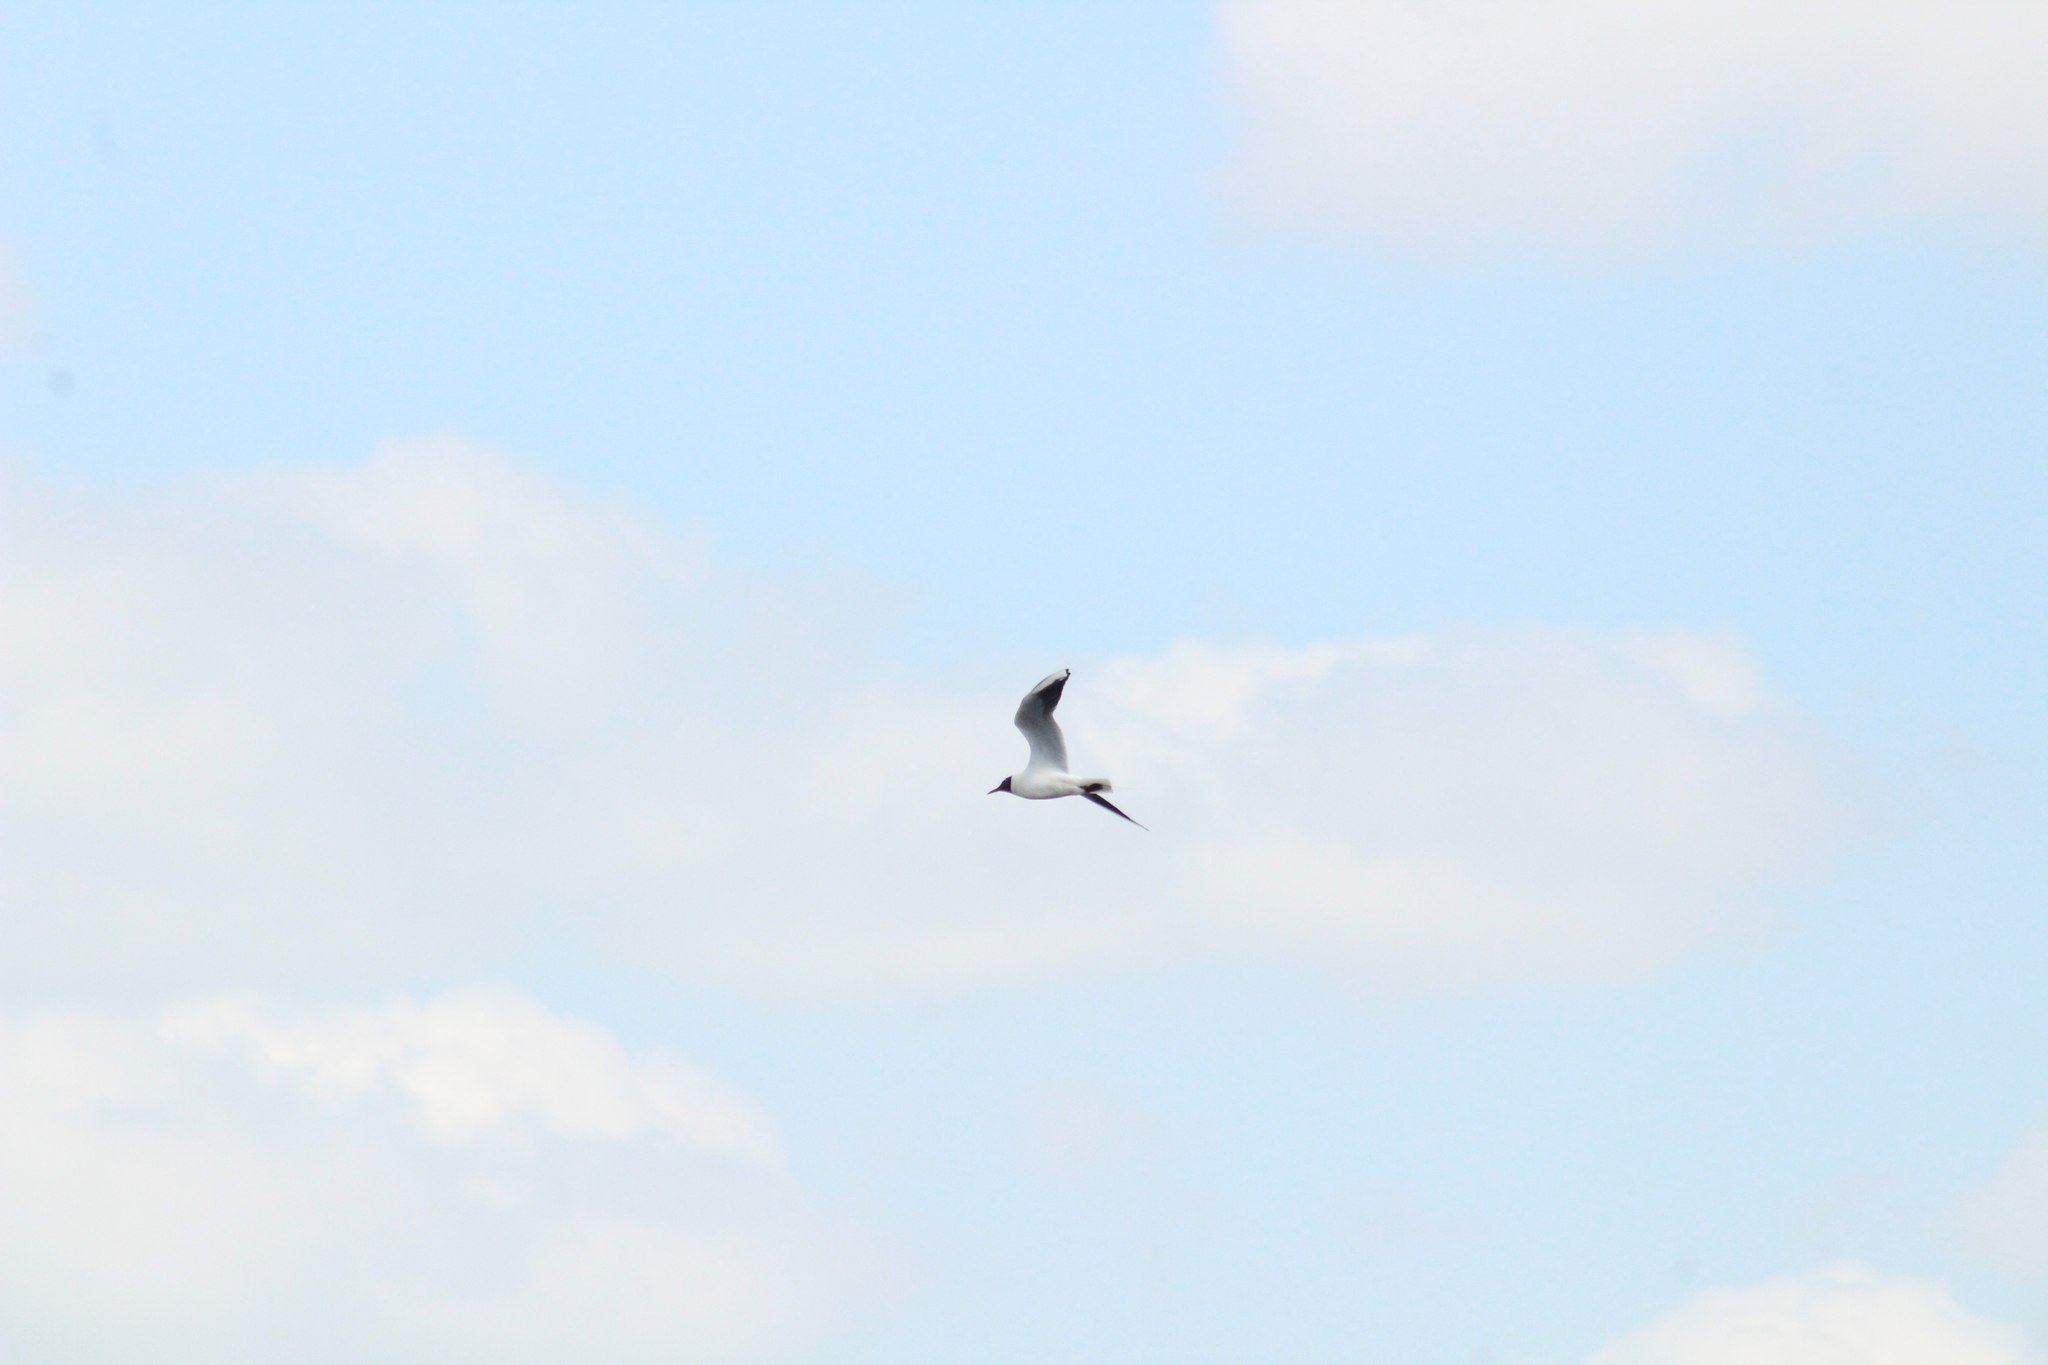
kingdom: Animalia
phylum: Chordata
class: Aves
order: Charadriiformes
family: Laridae
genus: Chroicocephalus
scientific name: Chroicocephalus ridibundus
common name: Black-headed gull
